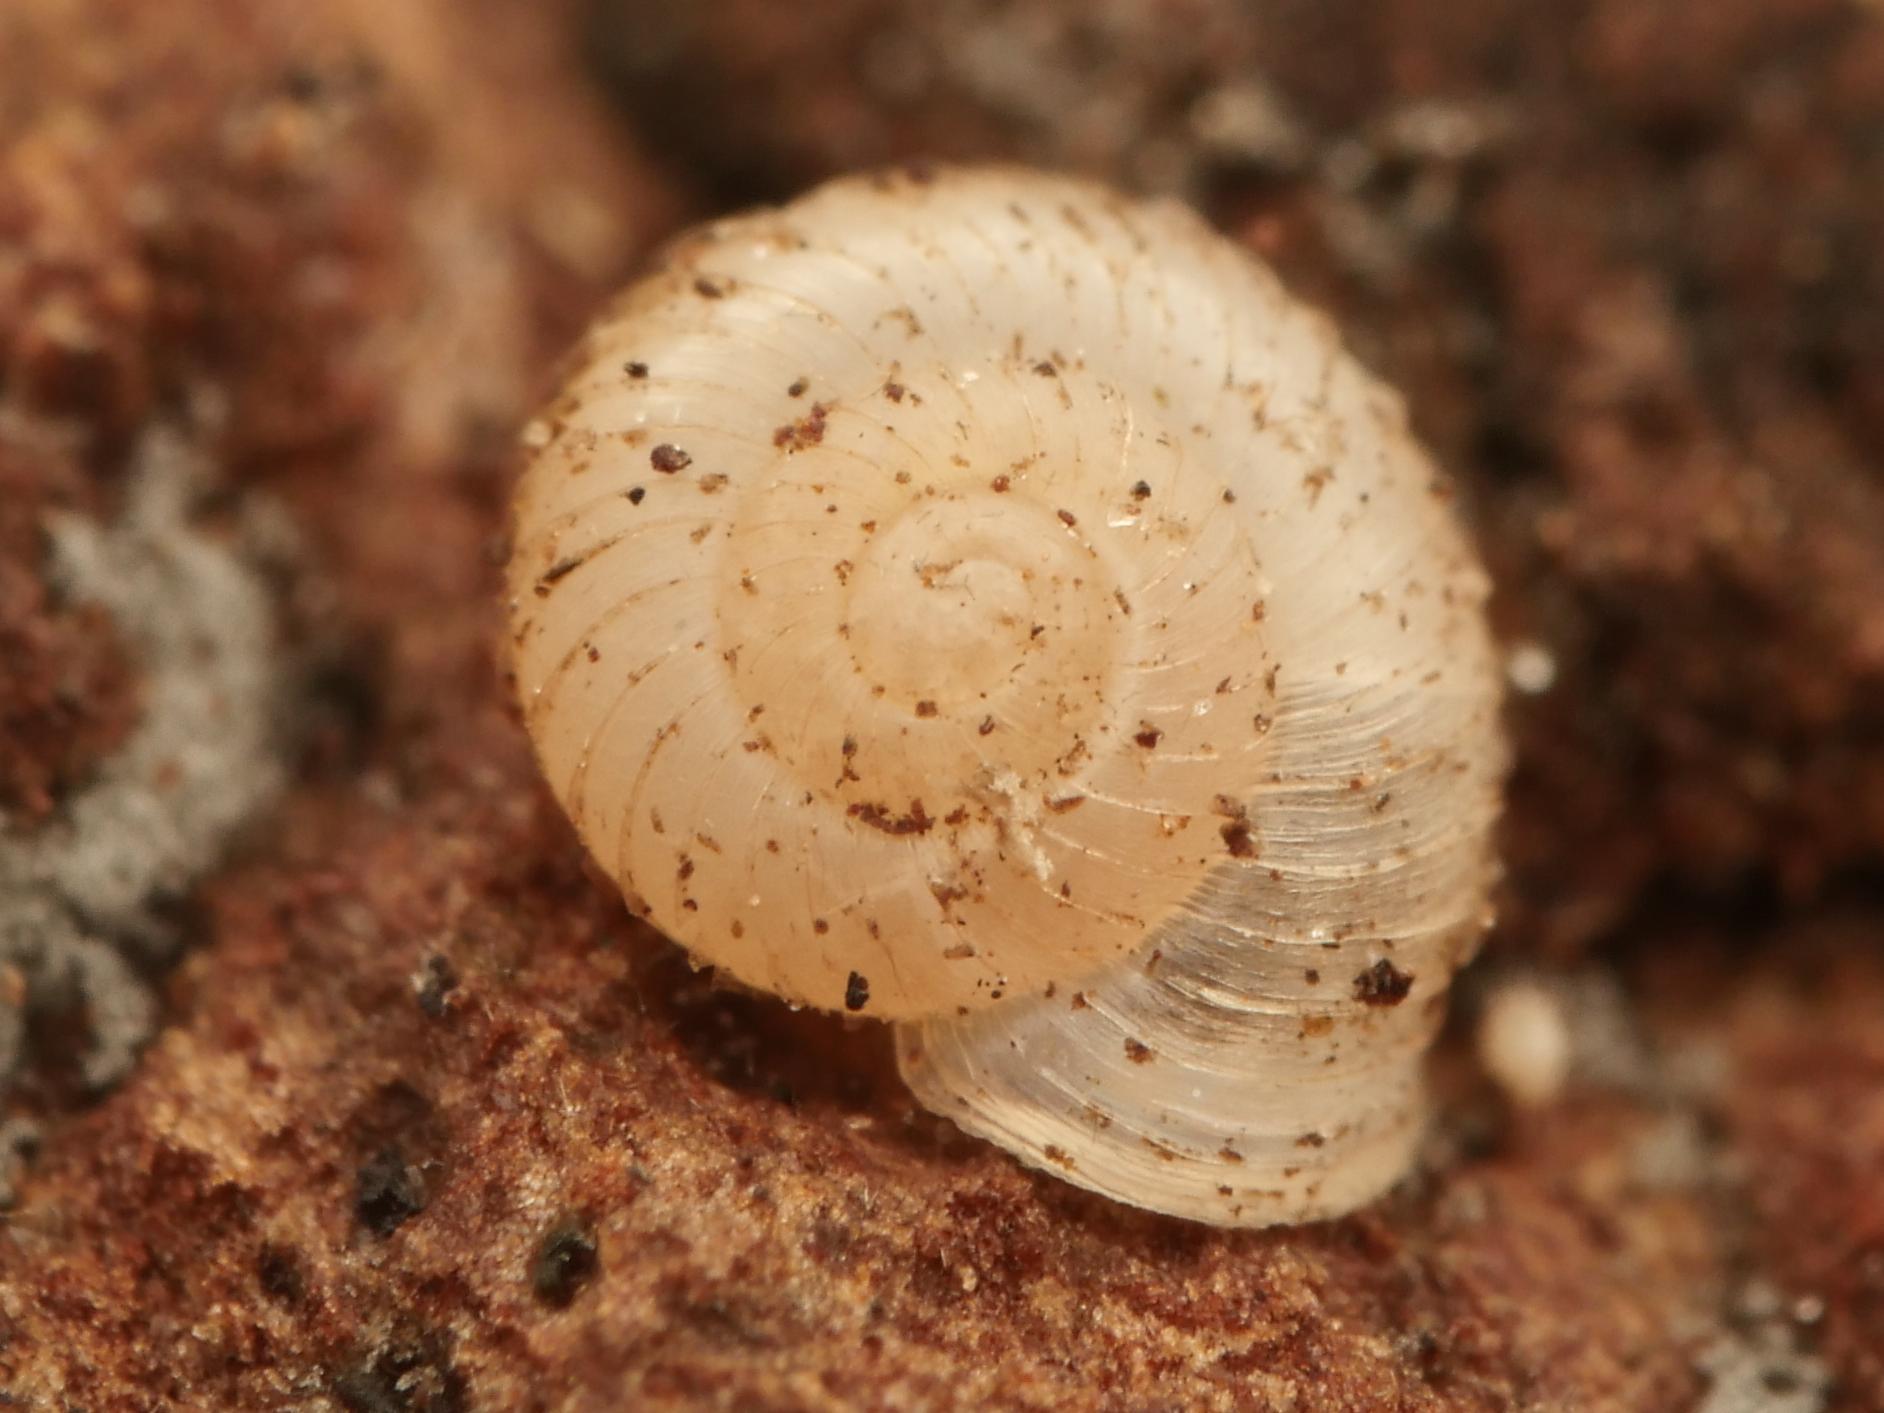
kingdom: Animalia
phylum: Mollusca
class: Gastropoda
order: Stylommatophora
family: Valloniidae
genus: Vallonia
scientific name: Vallonia costata
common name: Ribbed grass snail
